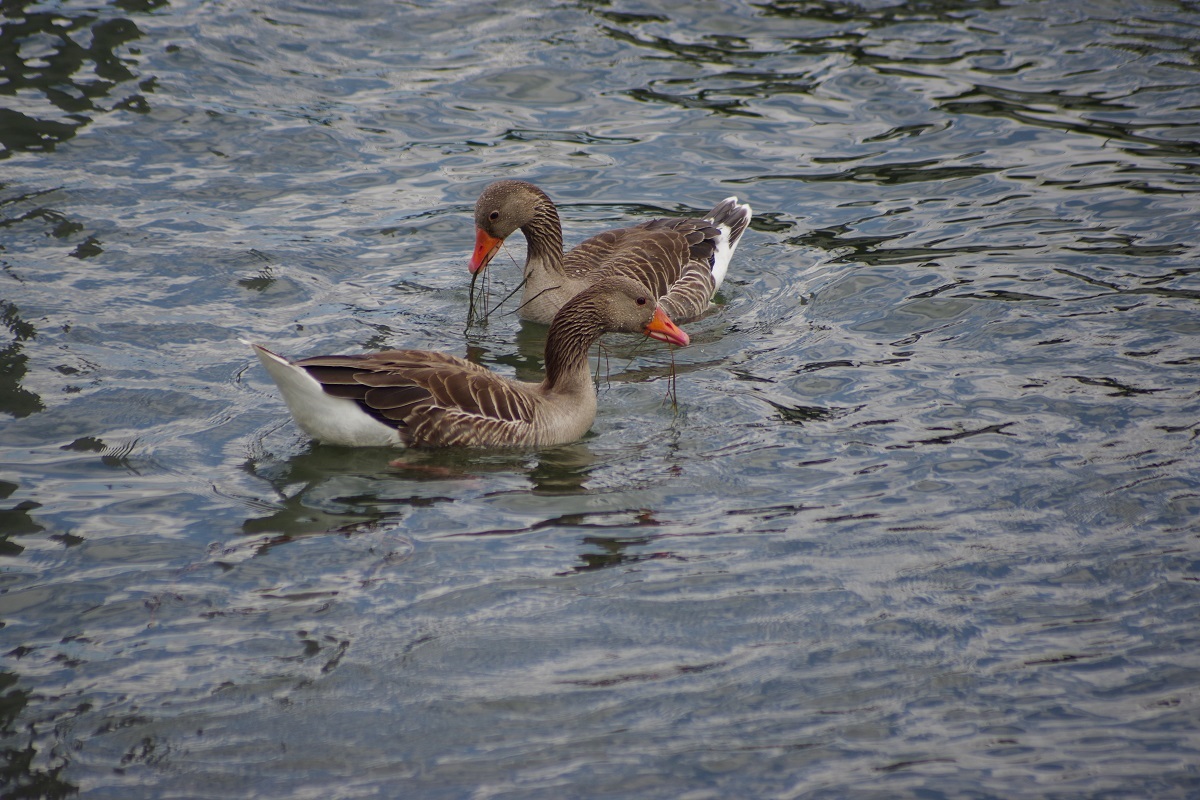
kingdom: Animalia
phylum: Chordata
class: Aves
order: Anseriformes
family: Anatidae
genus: Anser
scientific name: Anser anser
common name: Greylag goose
